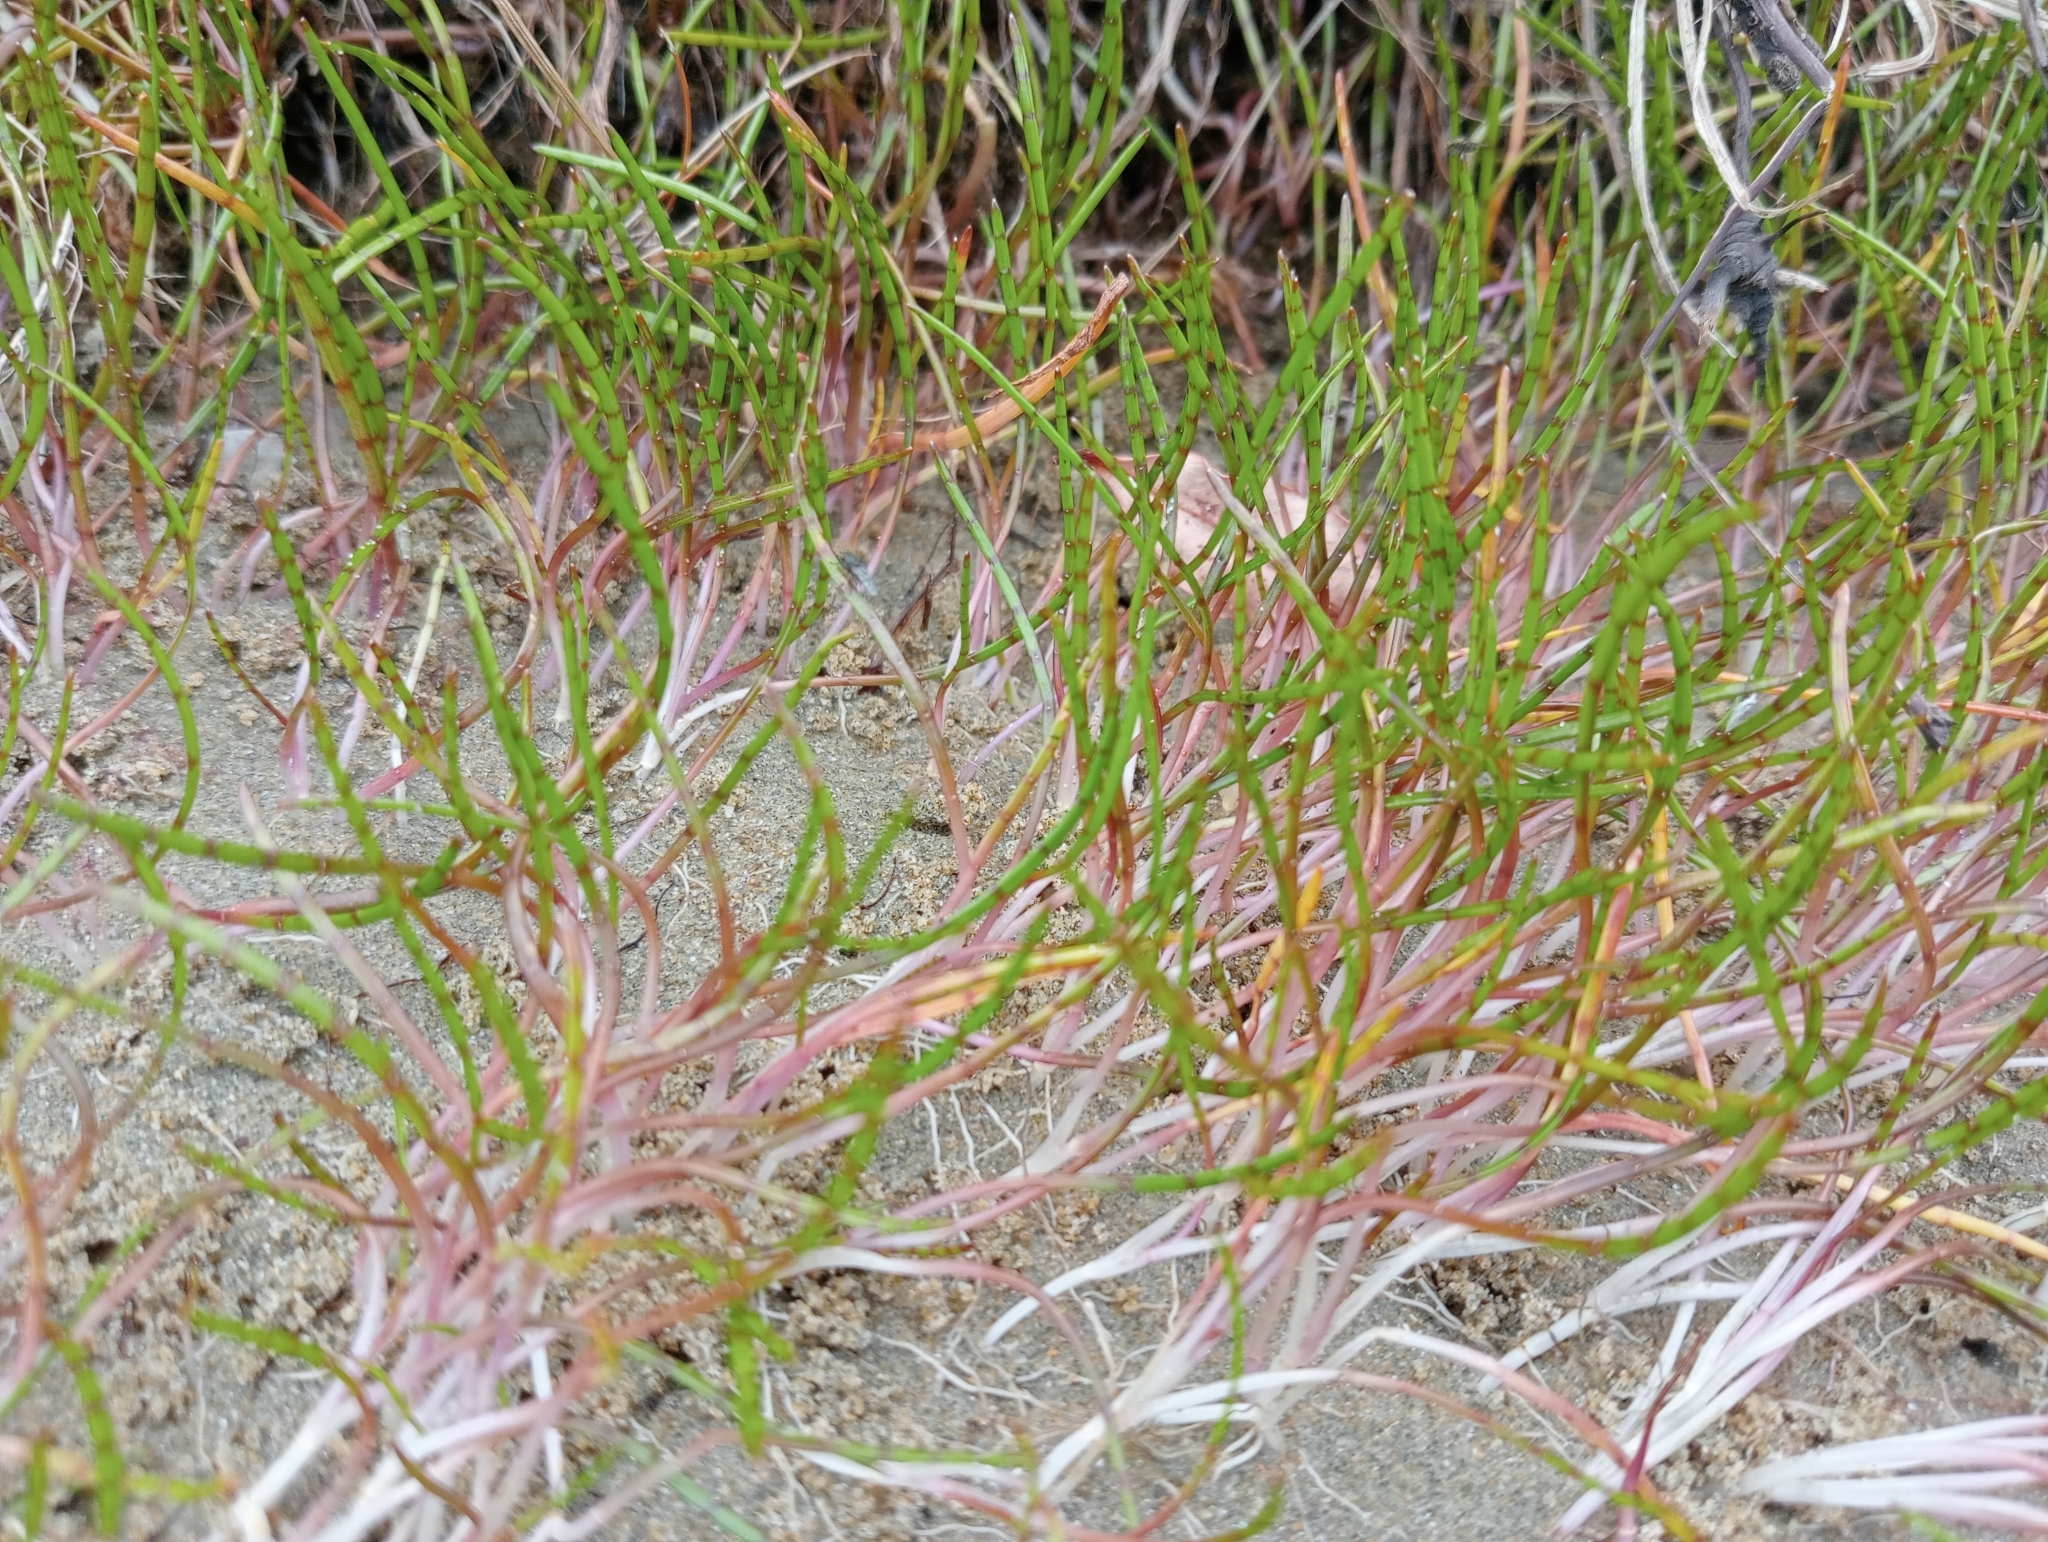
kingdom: Plantae
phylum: Tracheophyta
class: Magnoliopsida
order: Apiales
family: Apiaceae
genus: Lilaeopsis
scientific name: Lilaeopsis novae-zelandiae
